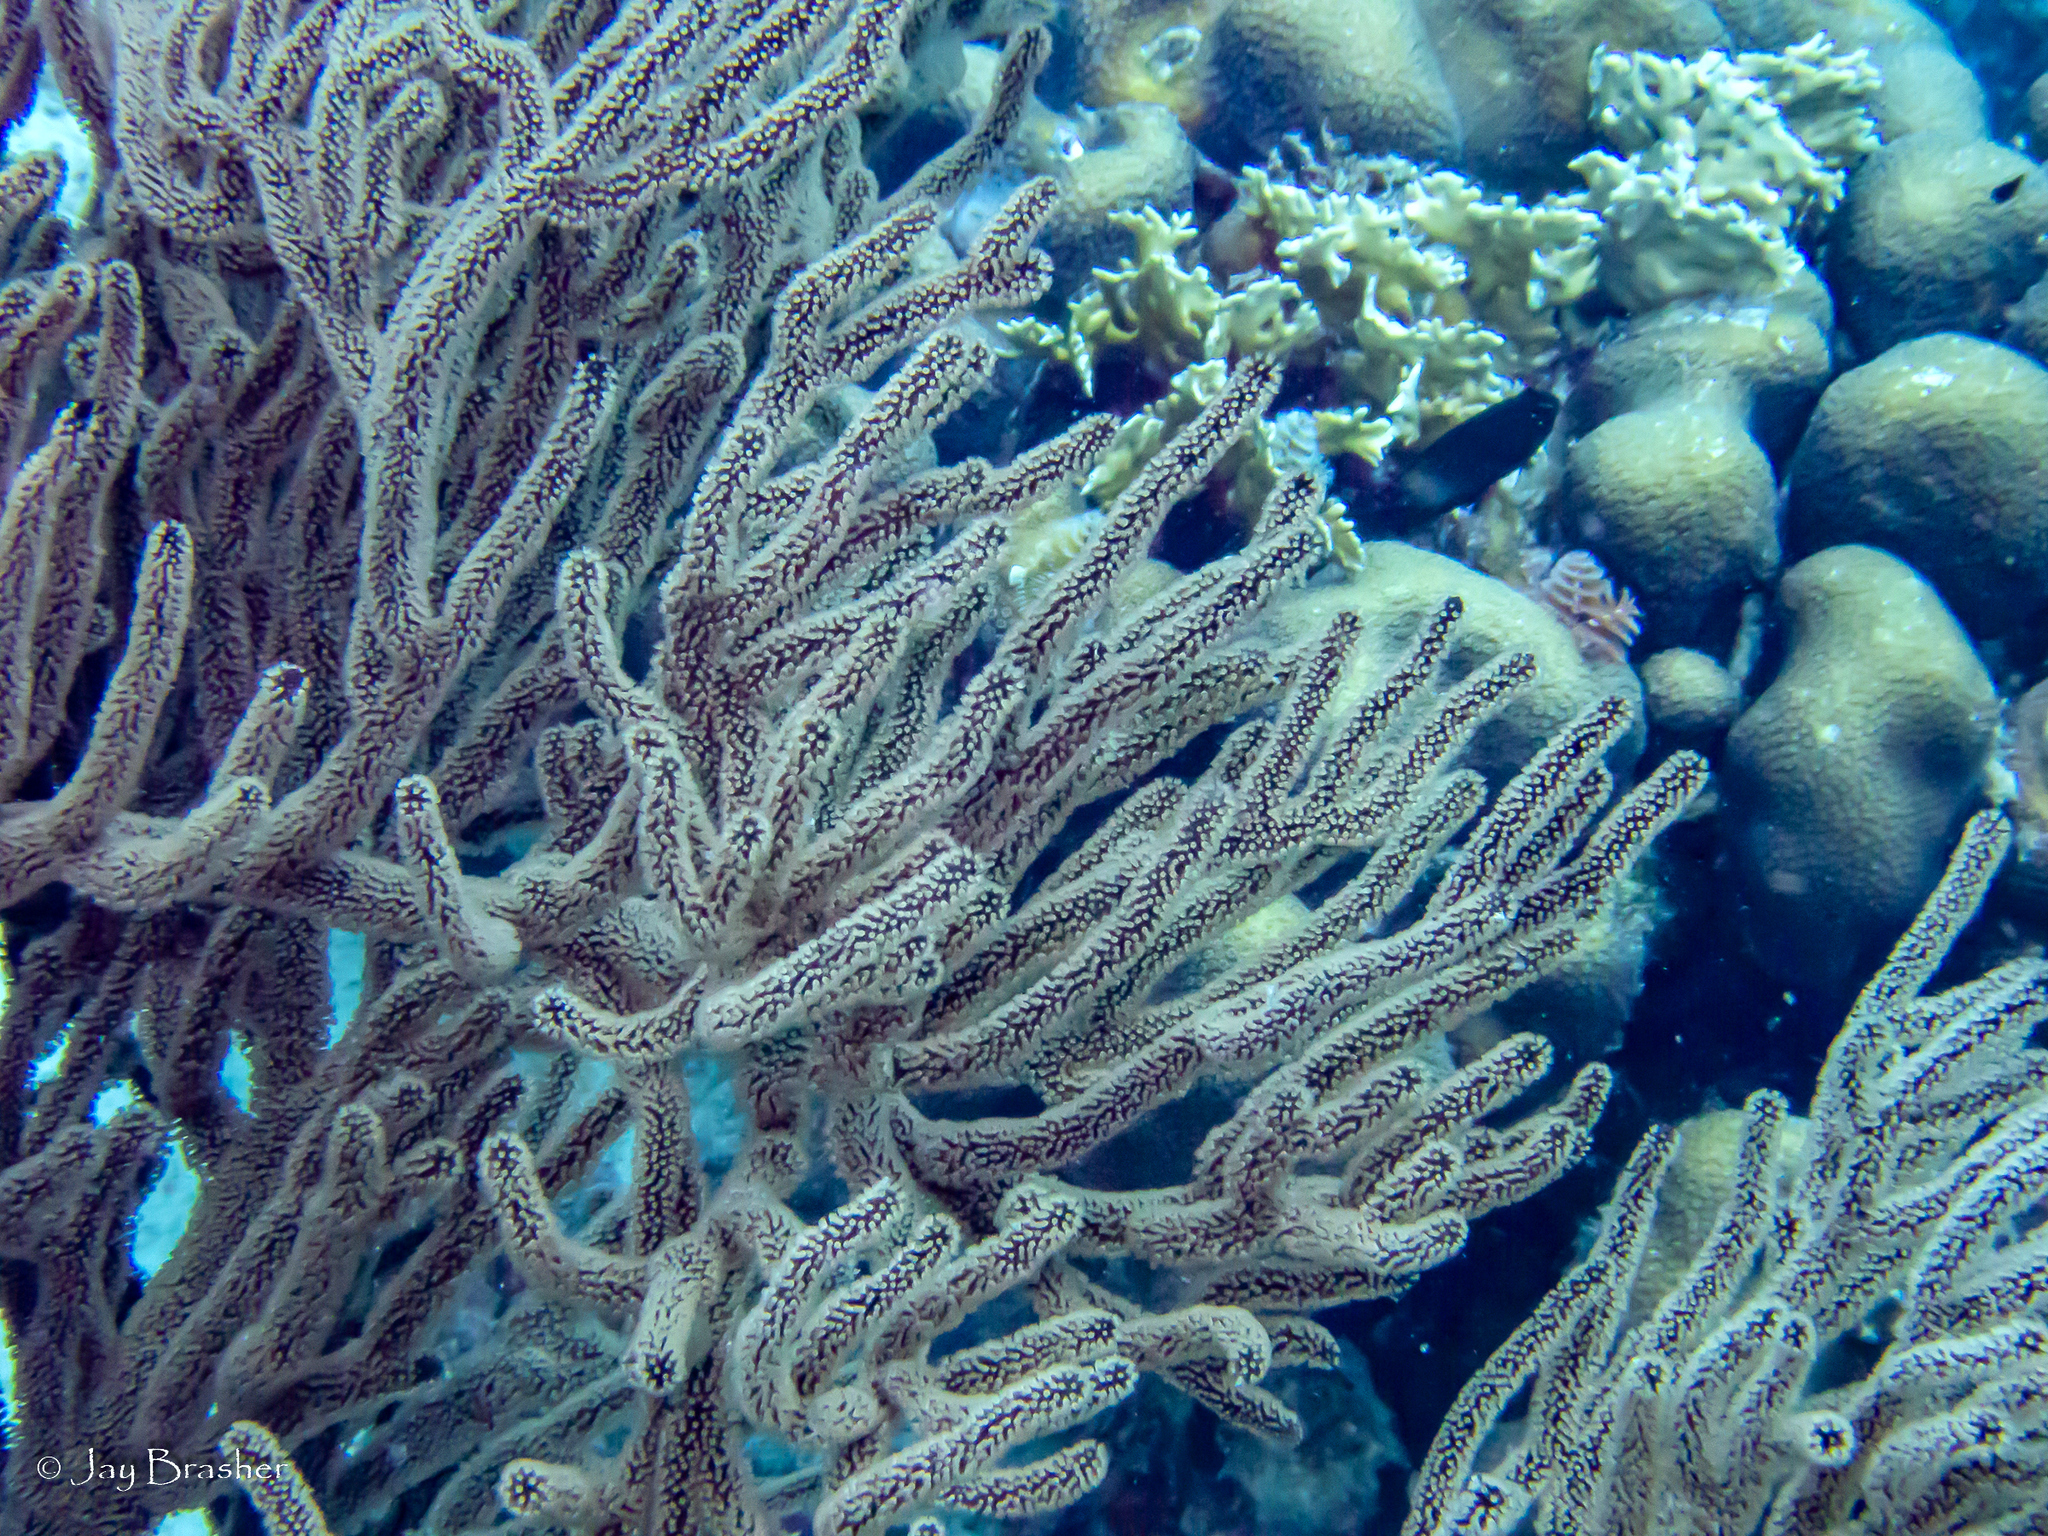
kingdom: Animalia
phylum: Cnidaria
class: Anthozoa
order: Malacalcyonacea
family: Plexauridae
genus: Plexaura
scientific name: Plexaura homomalla
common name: Black sea rod
